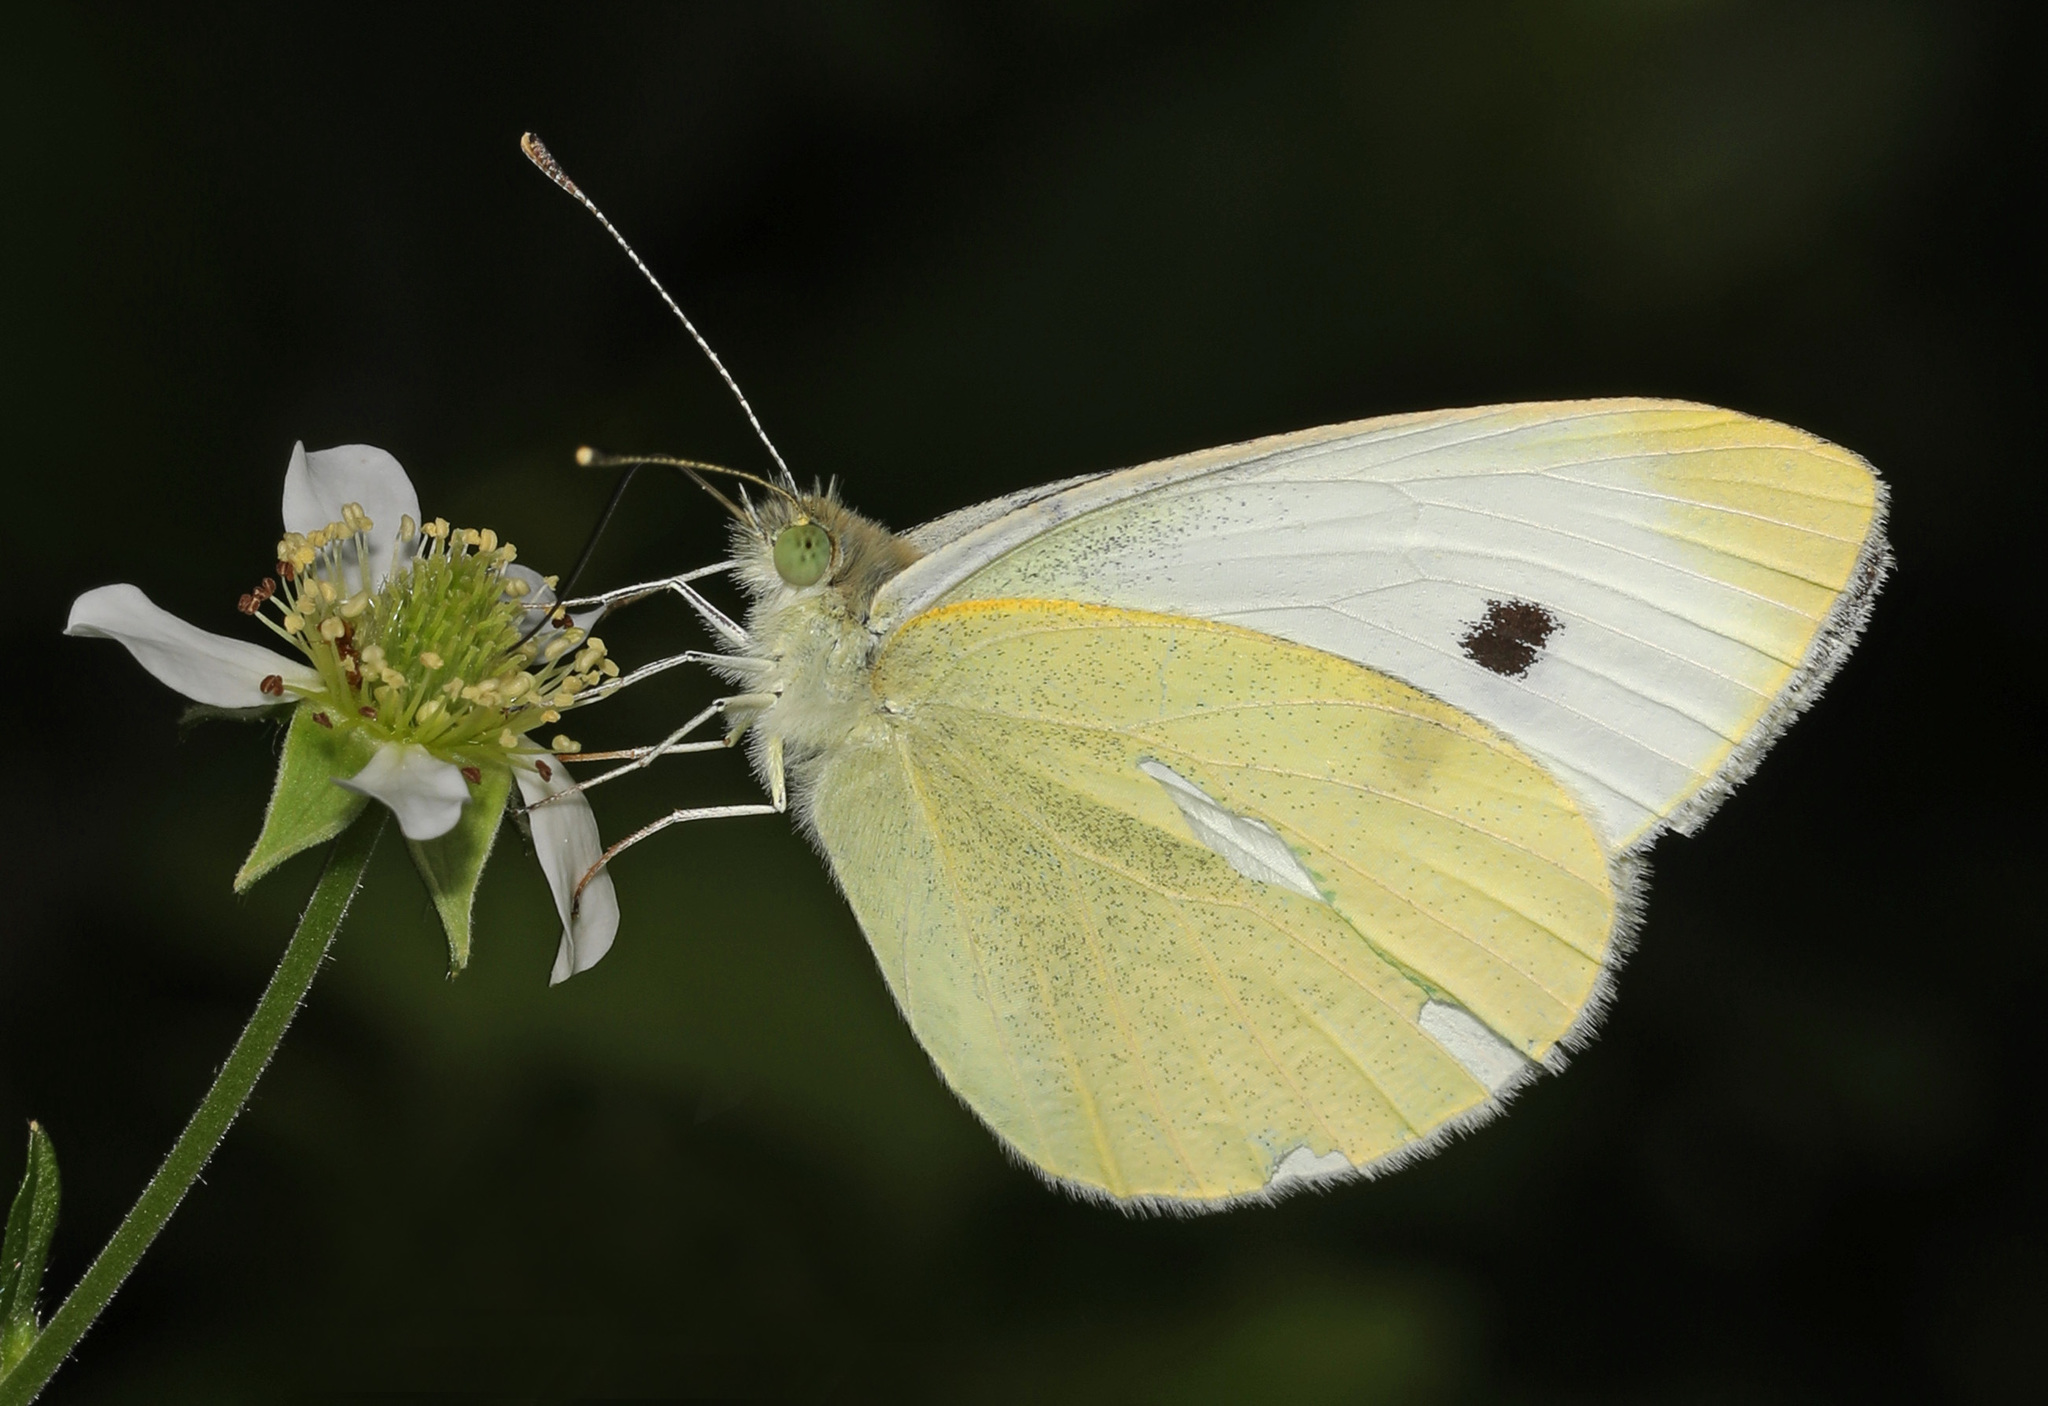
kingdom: Animalia
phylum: Arthropoda
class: Insecta
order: Lepidoptera
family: Pieridae
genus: Pieris
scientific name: Pieris rapae
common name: Small white
